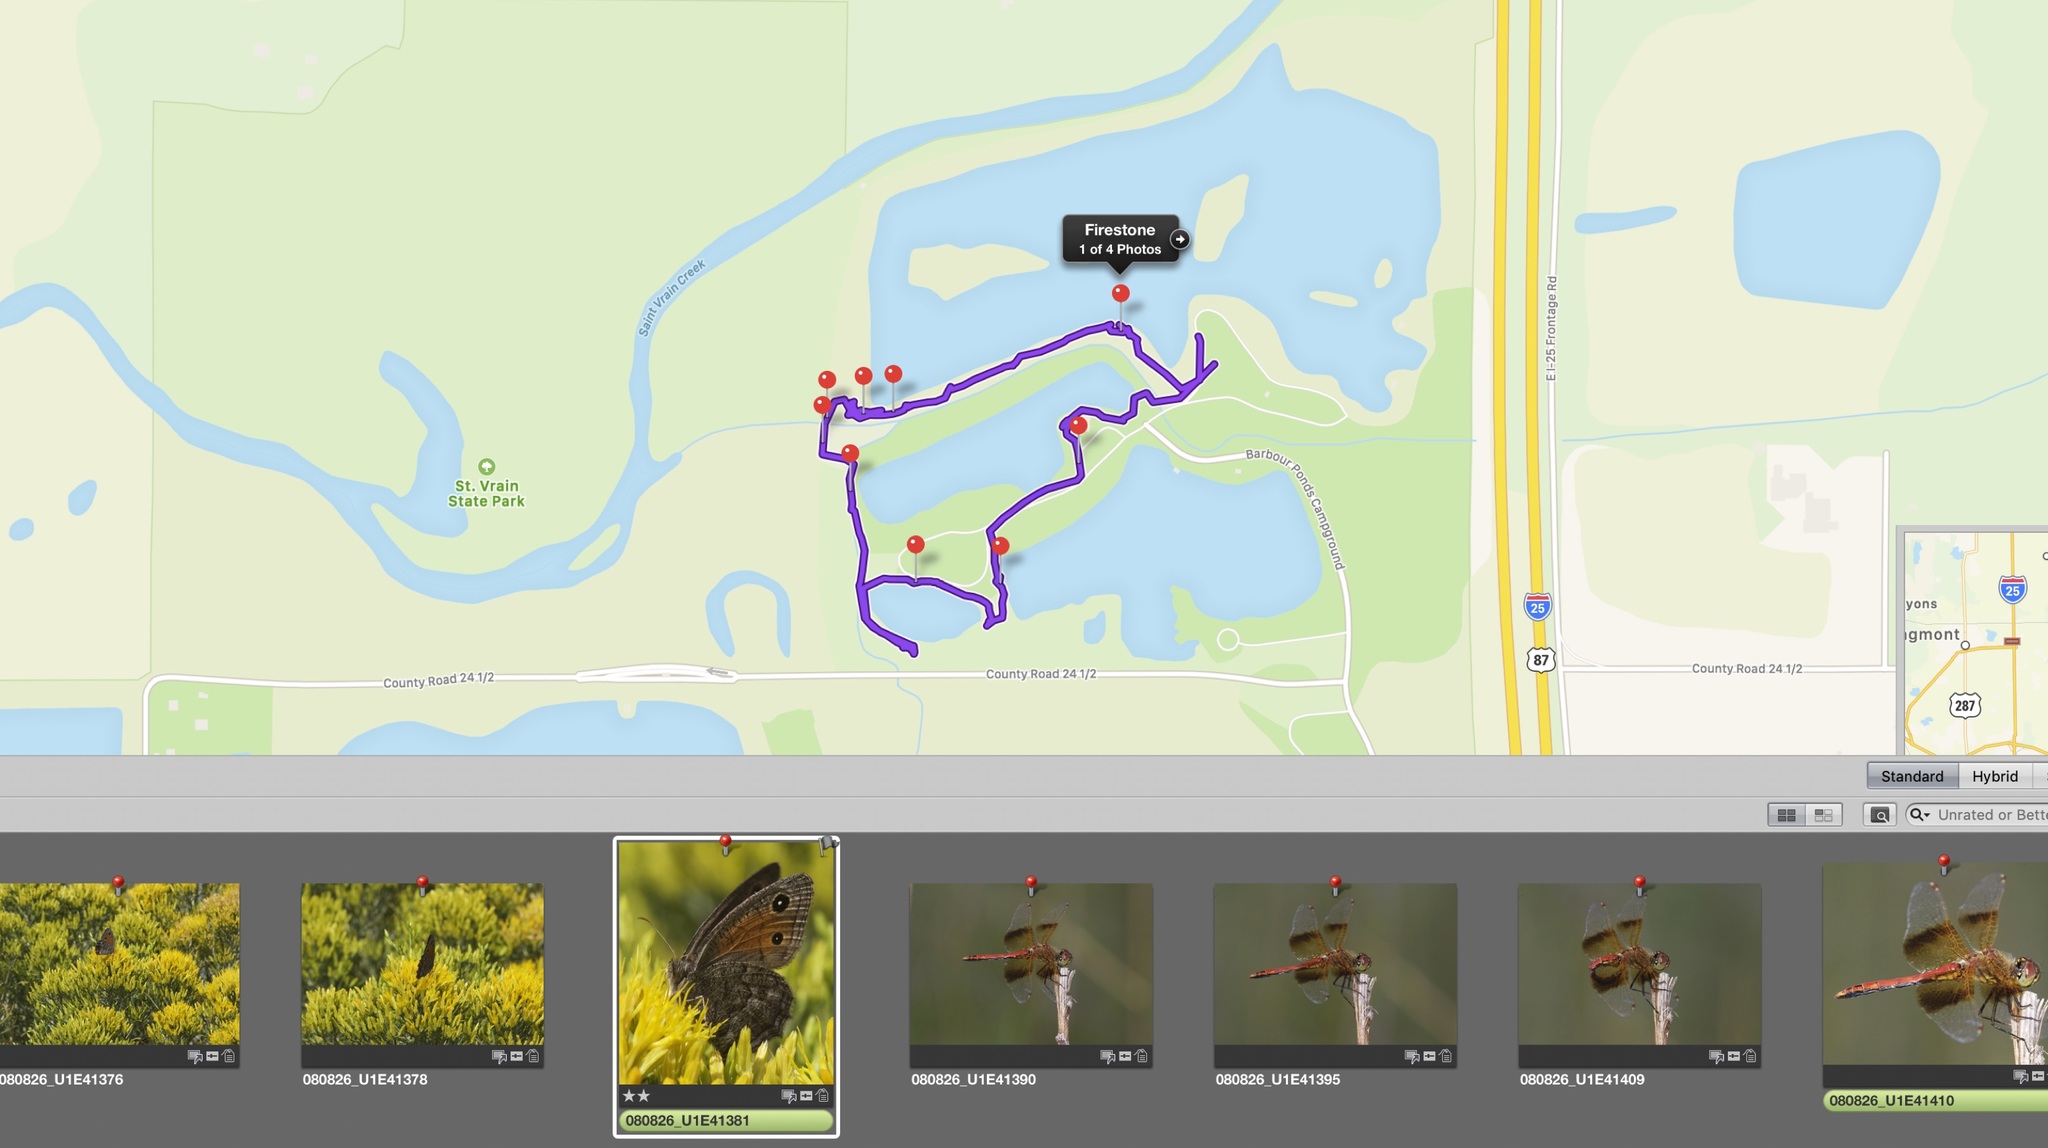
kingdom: Animalia
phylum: Arthropoda
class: Insecta
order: Lepidoptera
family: Nymphalidae
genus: Cercyonis
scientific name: Cercyonis meadi
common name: Mead's wood-nymph
